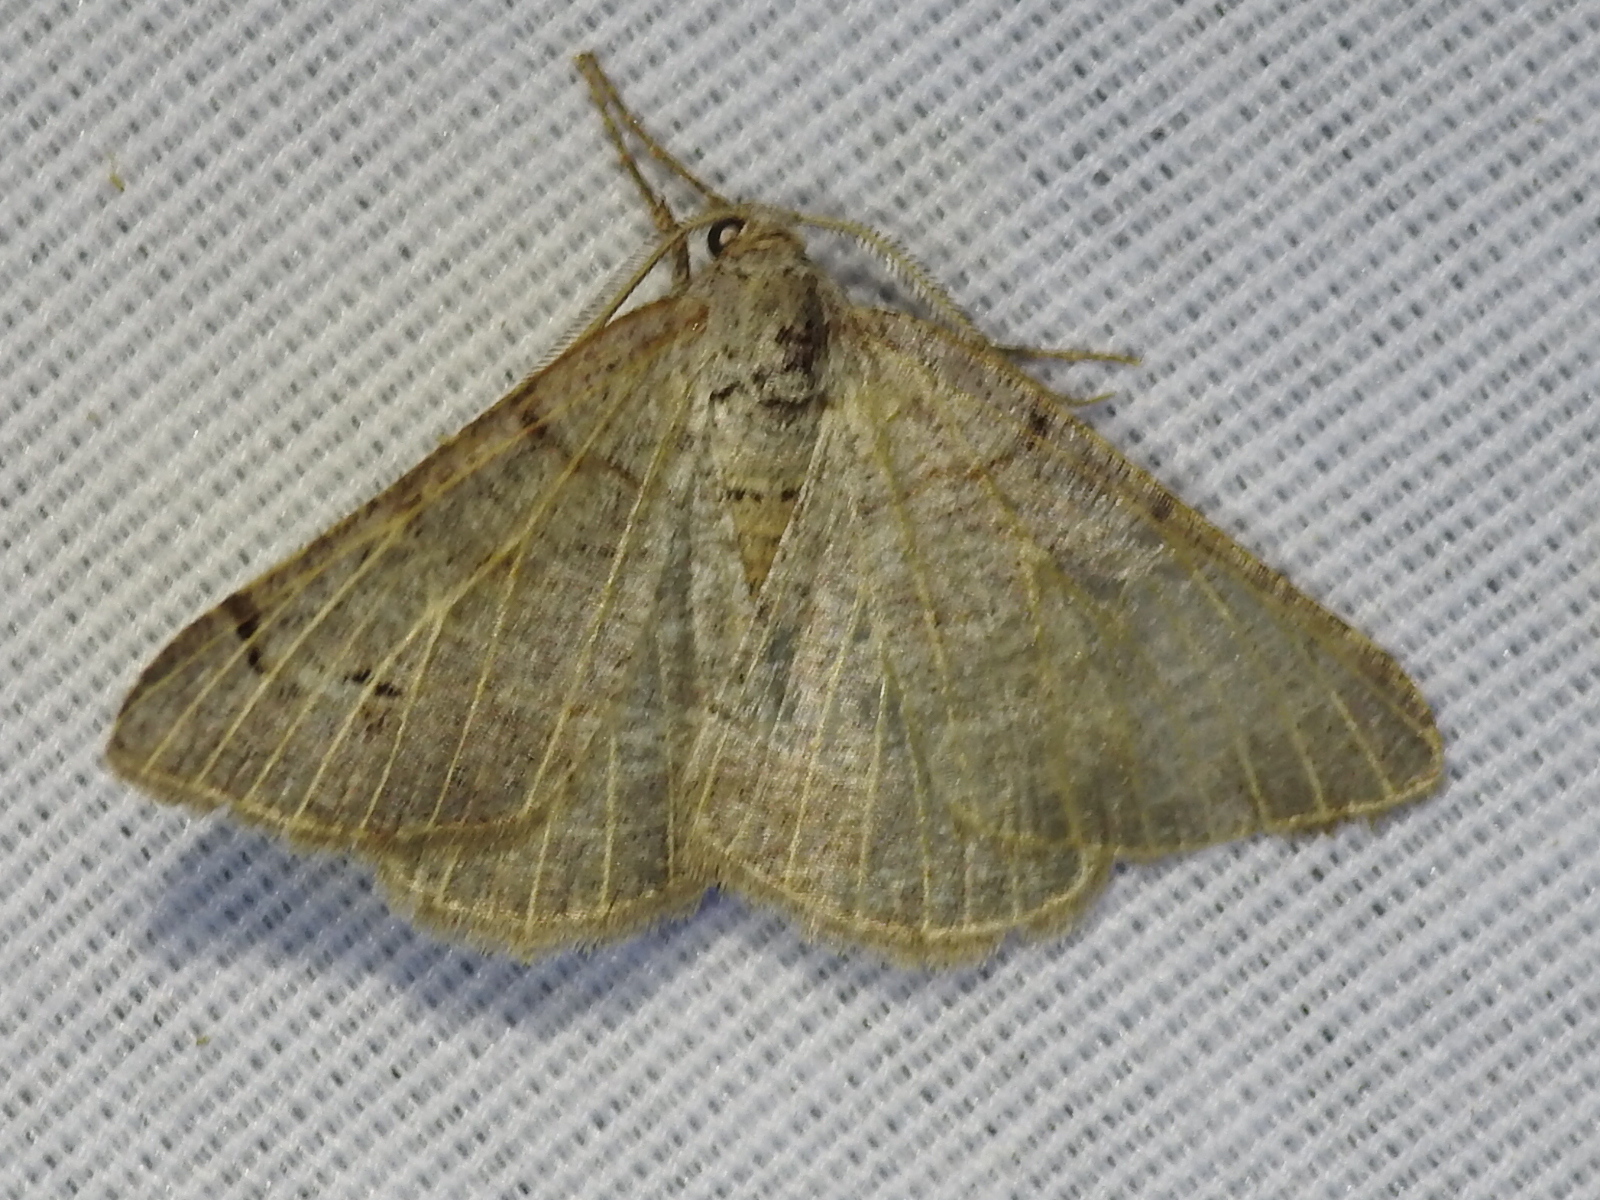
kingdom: Animalia
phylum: Arthropoda
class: Insecta
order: Lepidoptera
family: Geometridae
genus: Isturgia
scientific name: Isturgia dislocaria
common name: Pale-viened enconista
